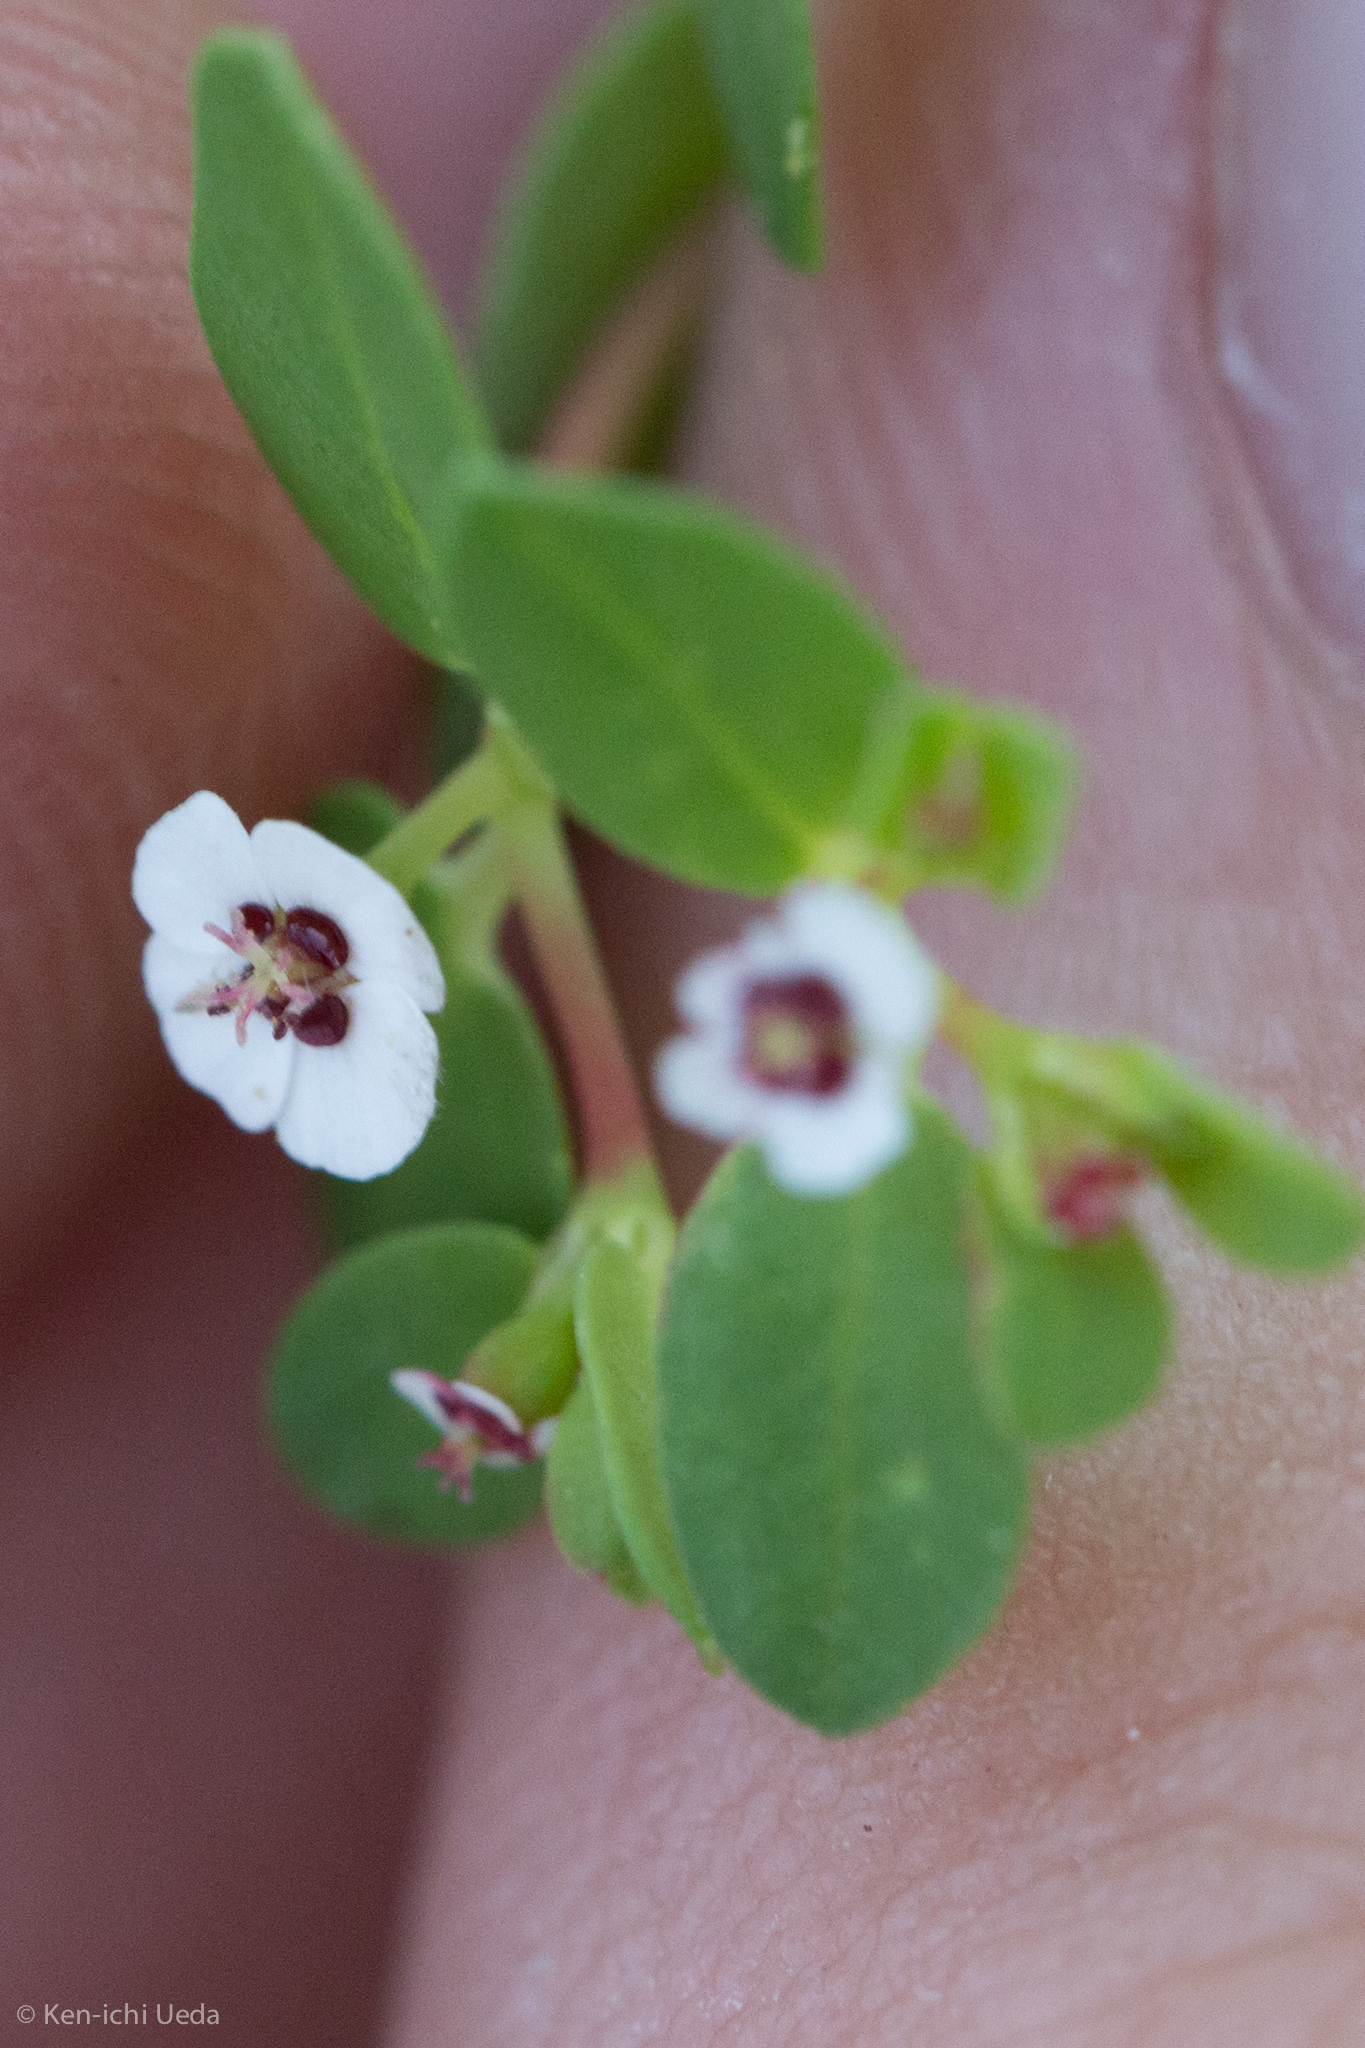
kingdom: Plantae
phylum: Tracheophyta
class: Magnoliopsida
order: Malpighiales
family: Euphorbiaceae
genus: Euphorbia
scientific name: Euphorbia polycarpa
